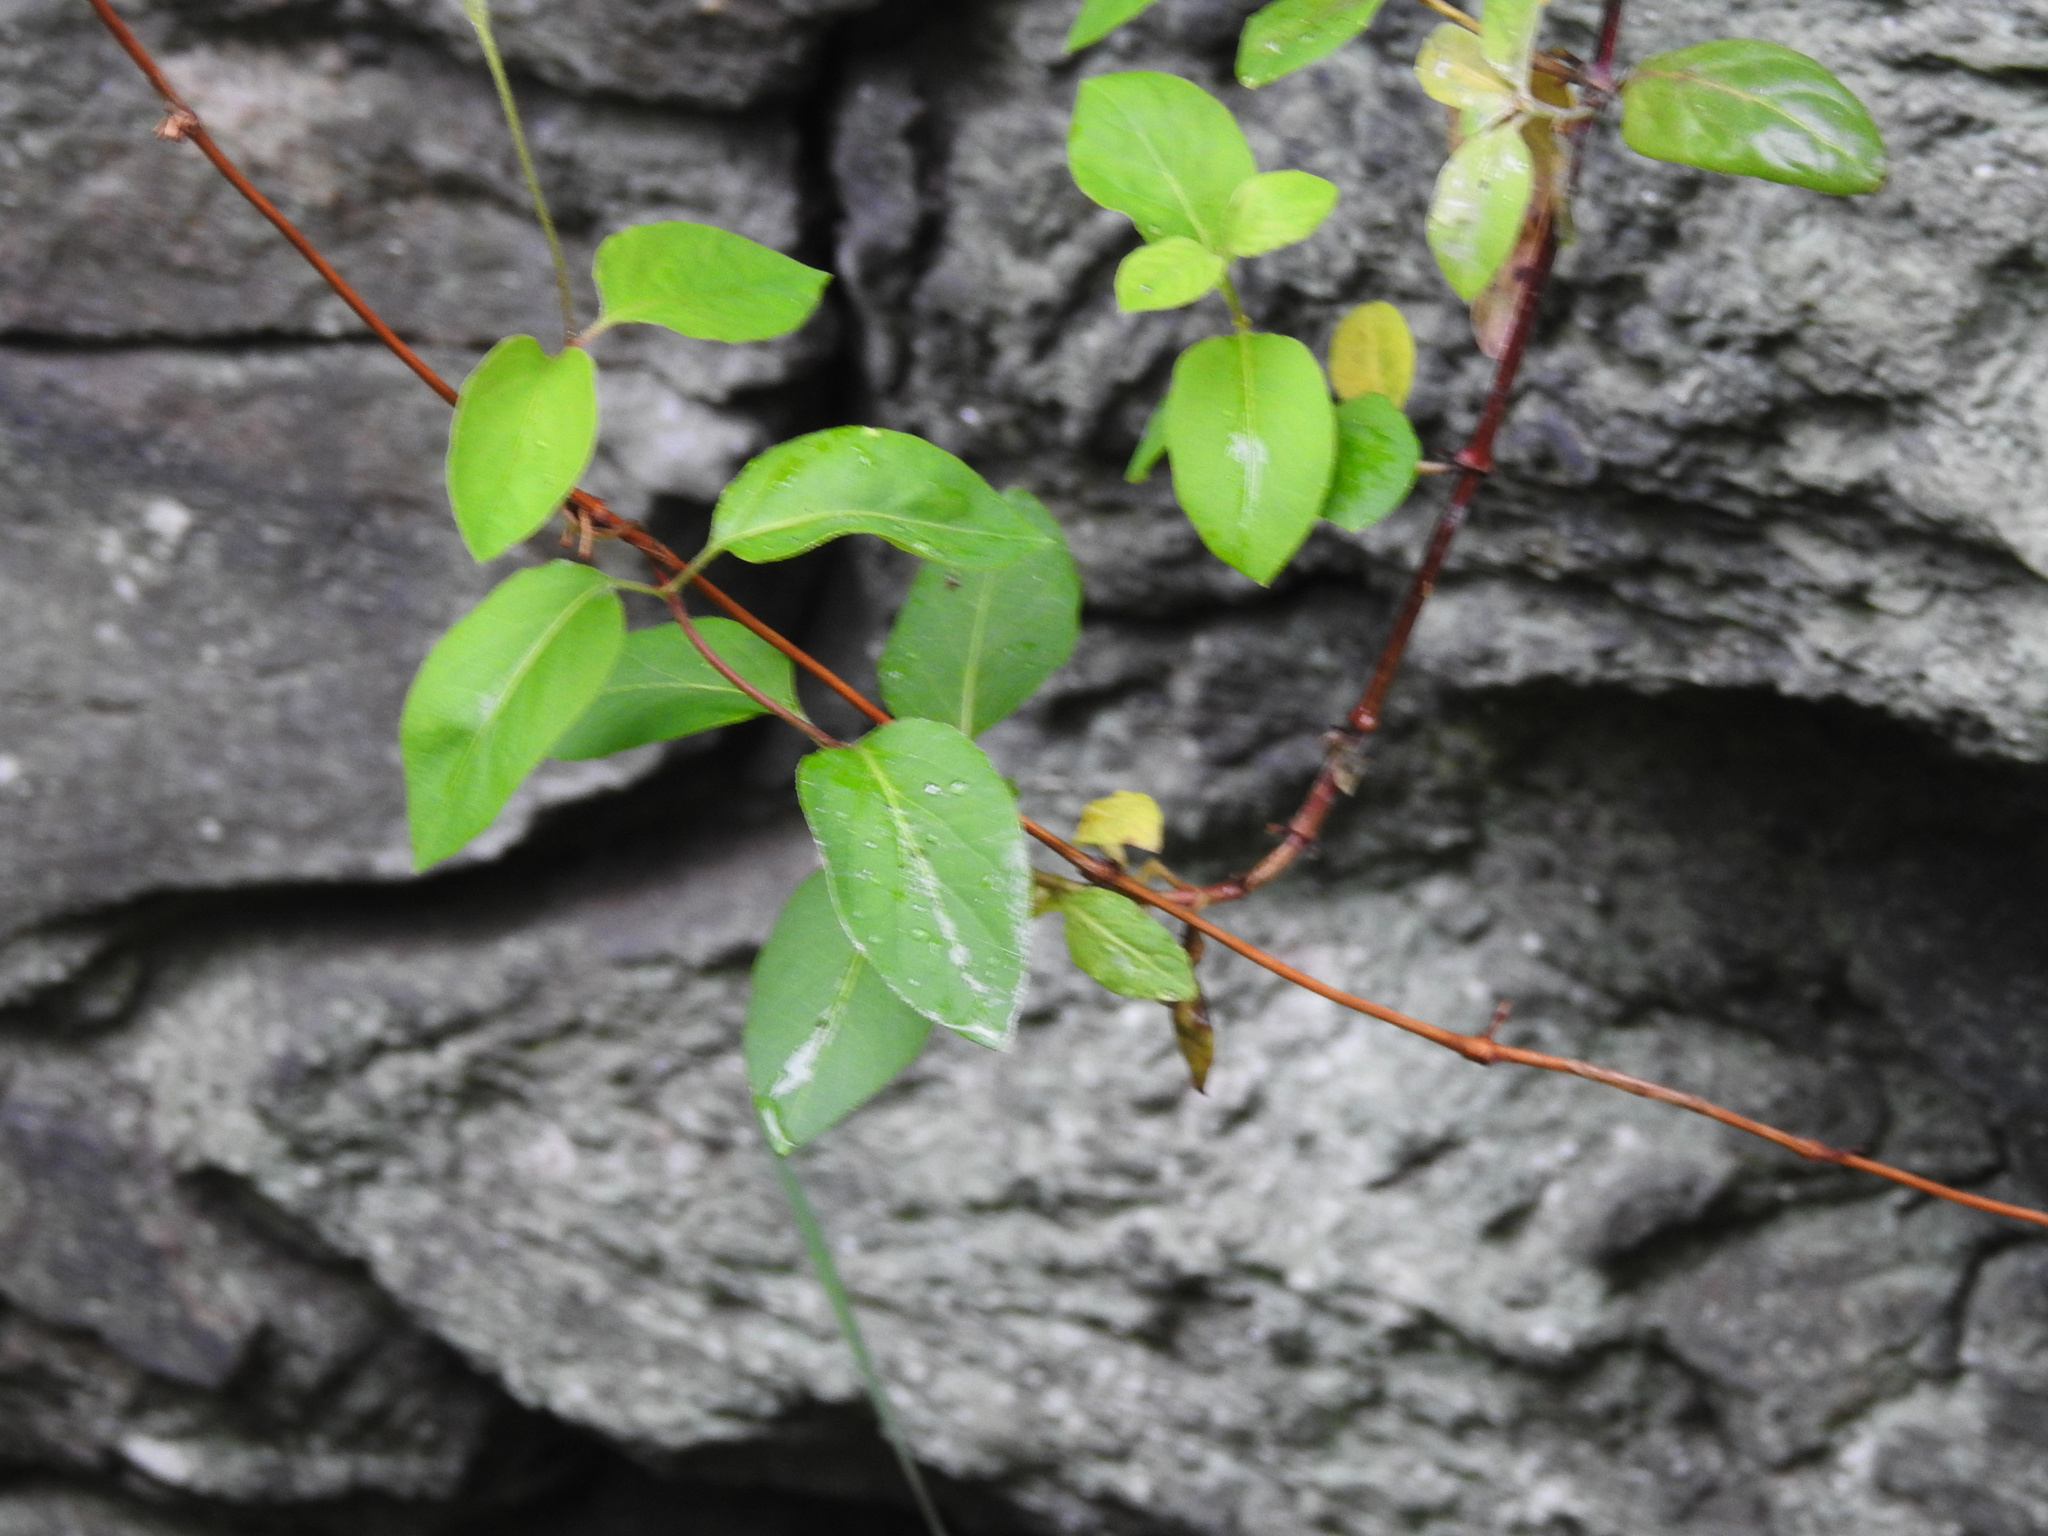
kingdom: Plantae
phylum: Tracheophyta
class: Magnoliopsida
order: Dipsacales
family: Caprifoliaceae
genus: Lonicera
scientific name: Lonicera japonica
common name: Japanese honeysuckle
